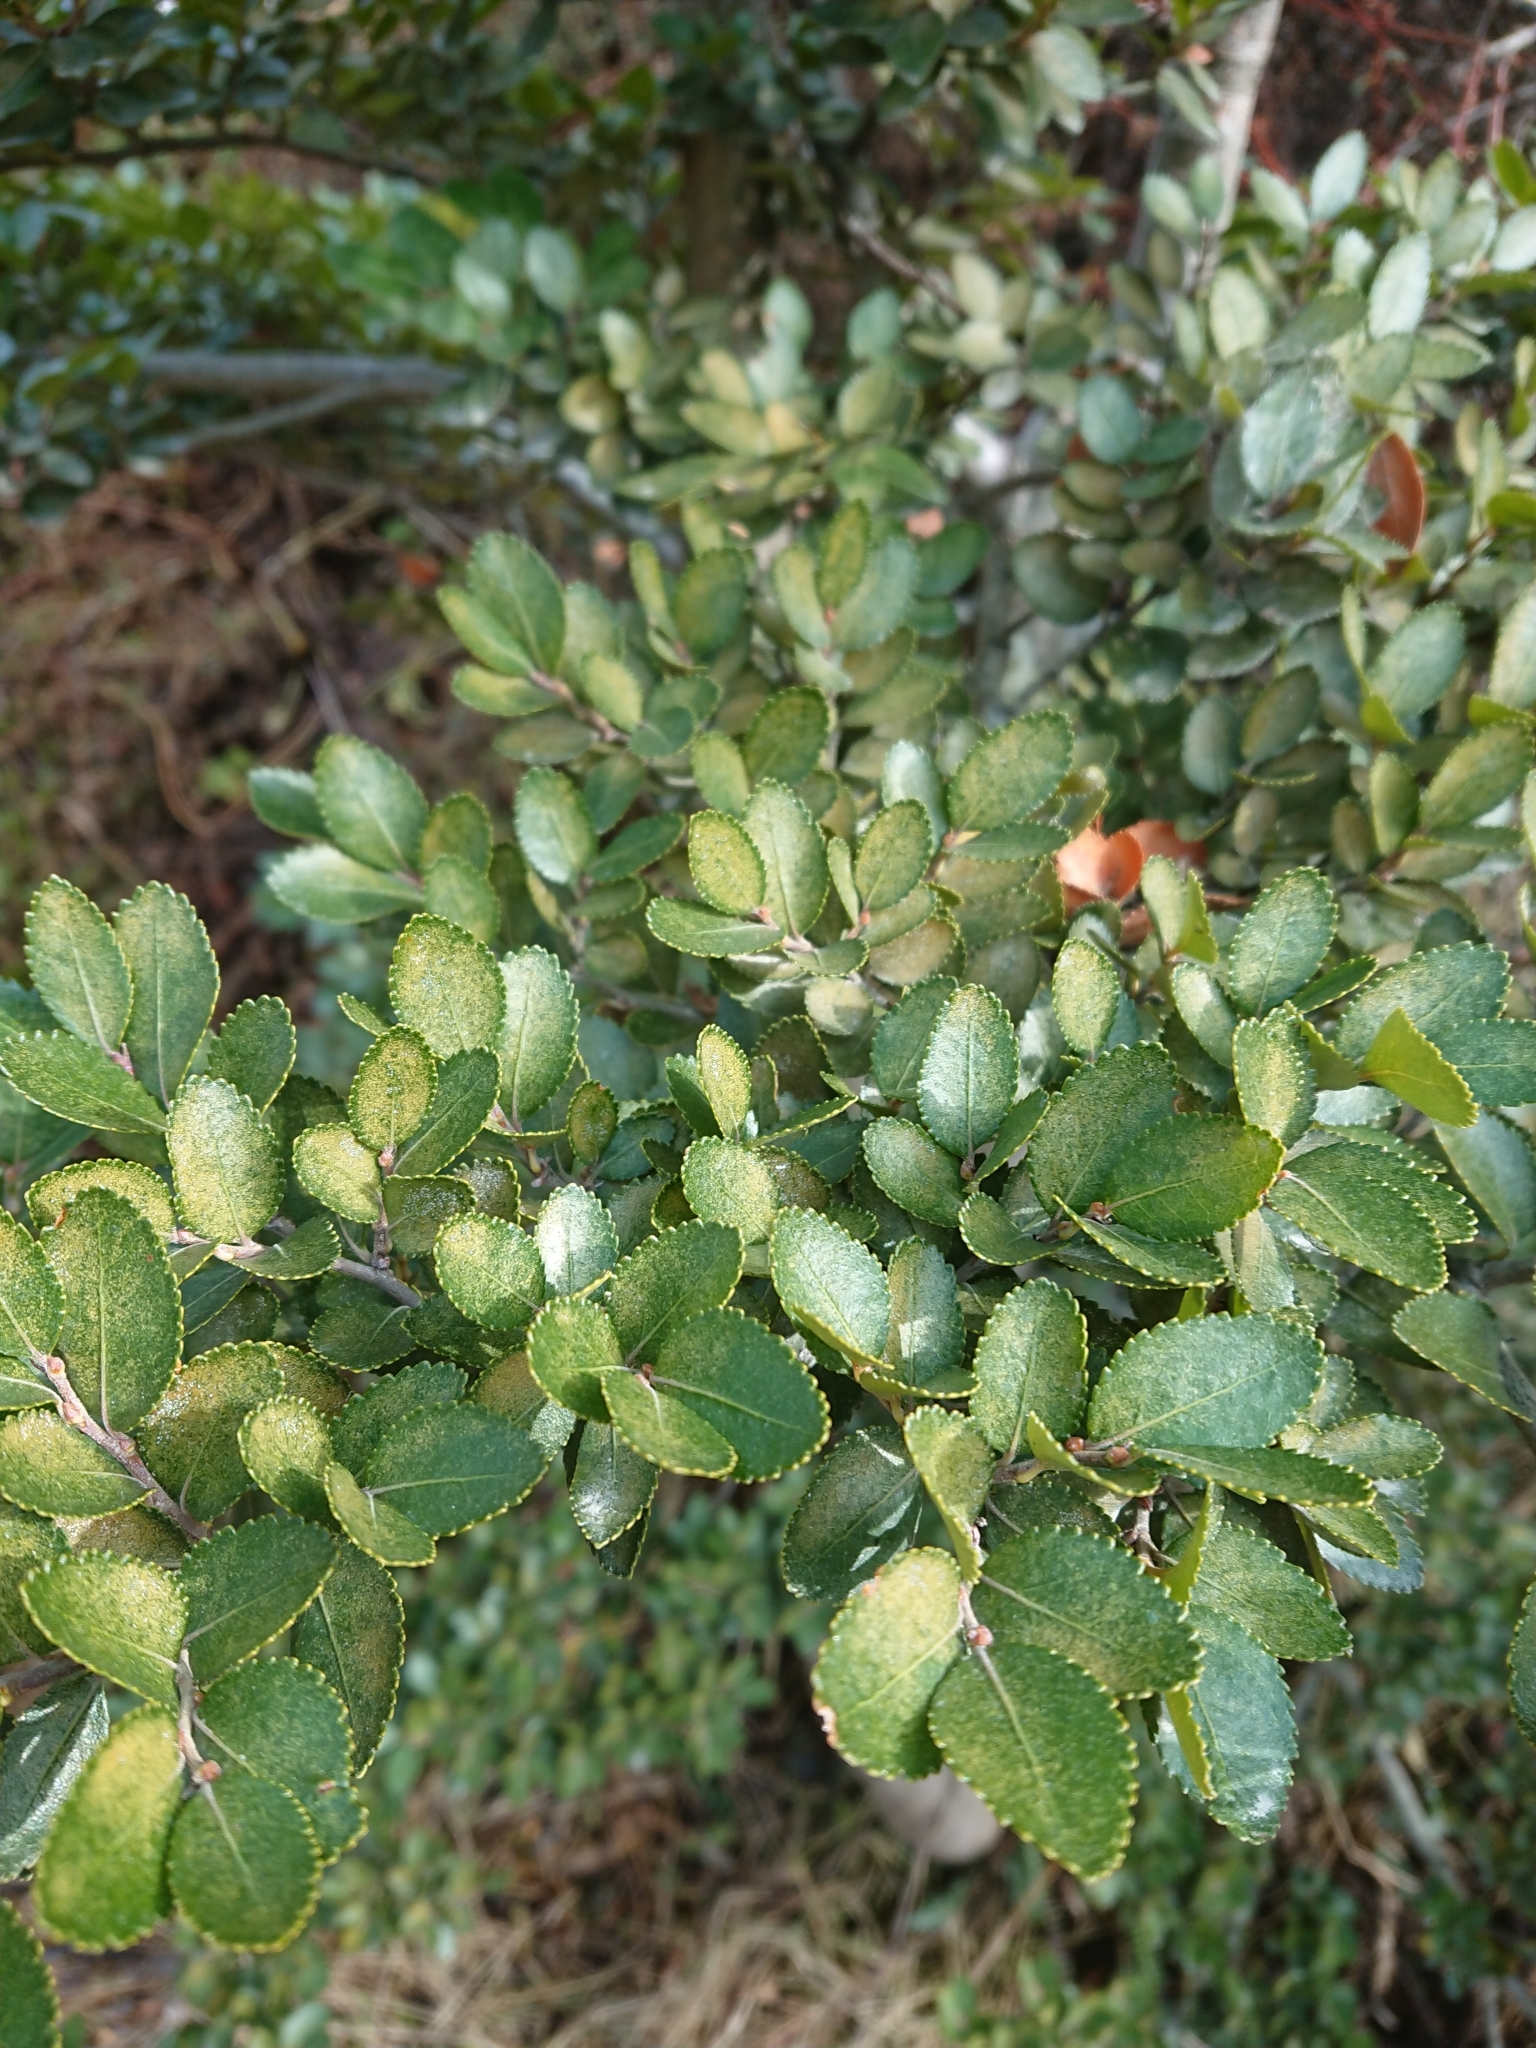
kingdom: Plantae
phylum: Tracheophyta
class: Magnoliopsida
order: Fagales
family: Nothofagaceae
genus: Nothofagus
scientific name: Nothofagus betuloides
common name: Magellan's beech
